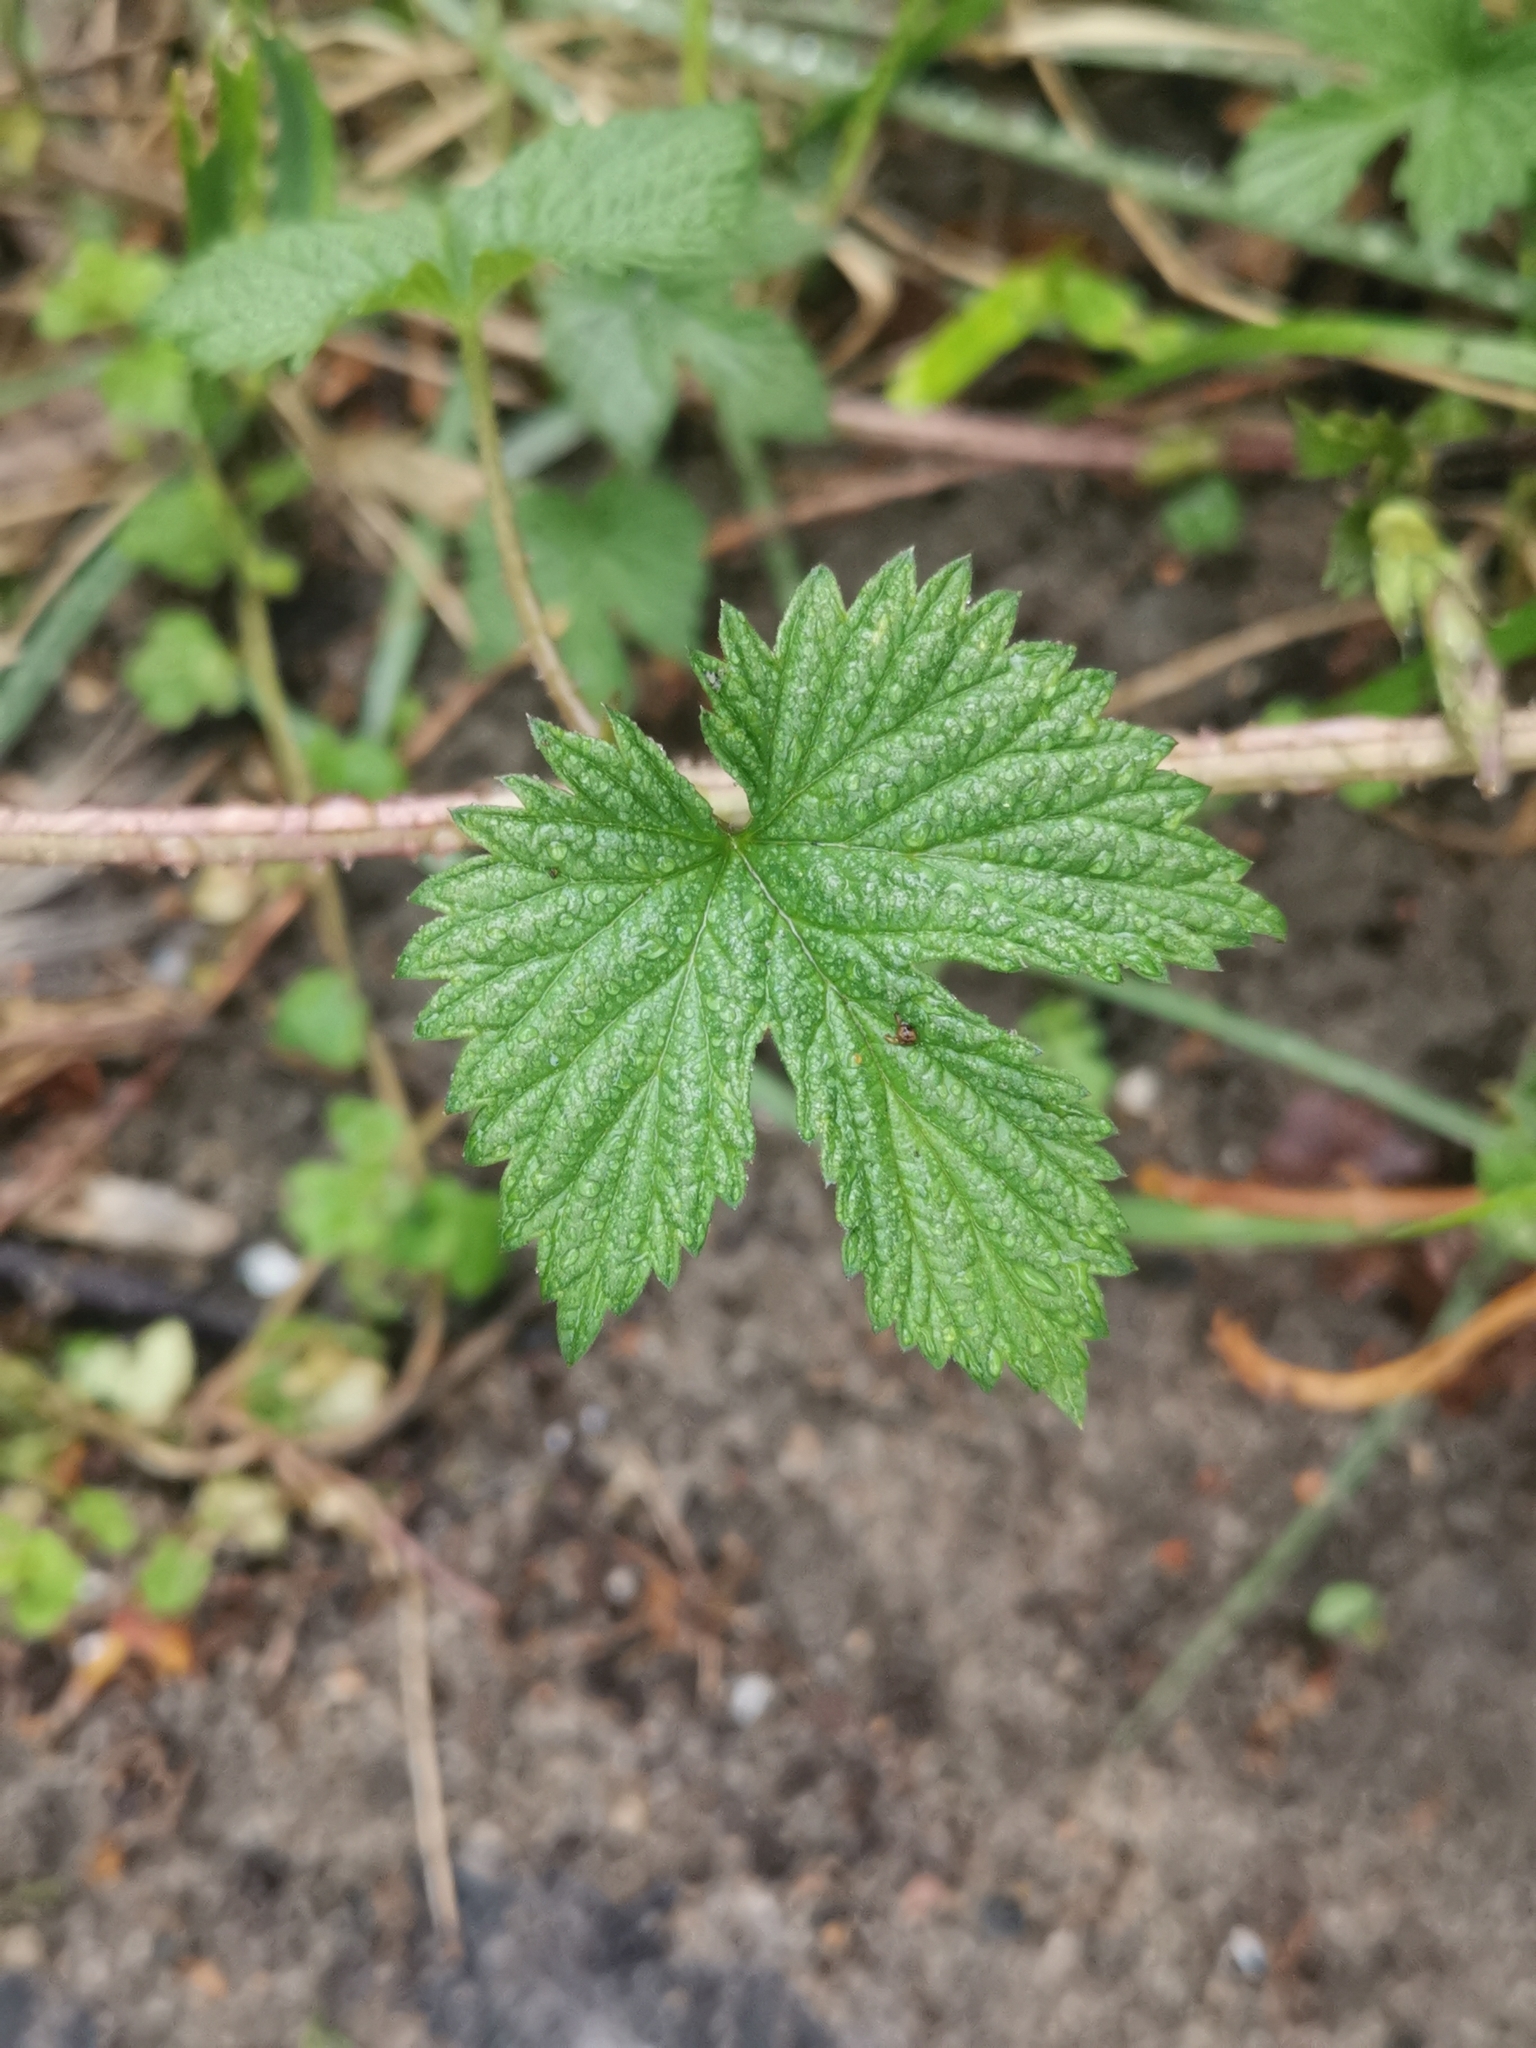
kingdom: Plantae
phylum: Tracheophyta
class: Magnoliopsida
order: Rosales
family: Cannabaceae
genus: Humulus
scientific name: Humulus lupulus
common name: Hop
